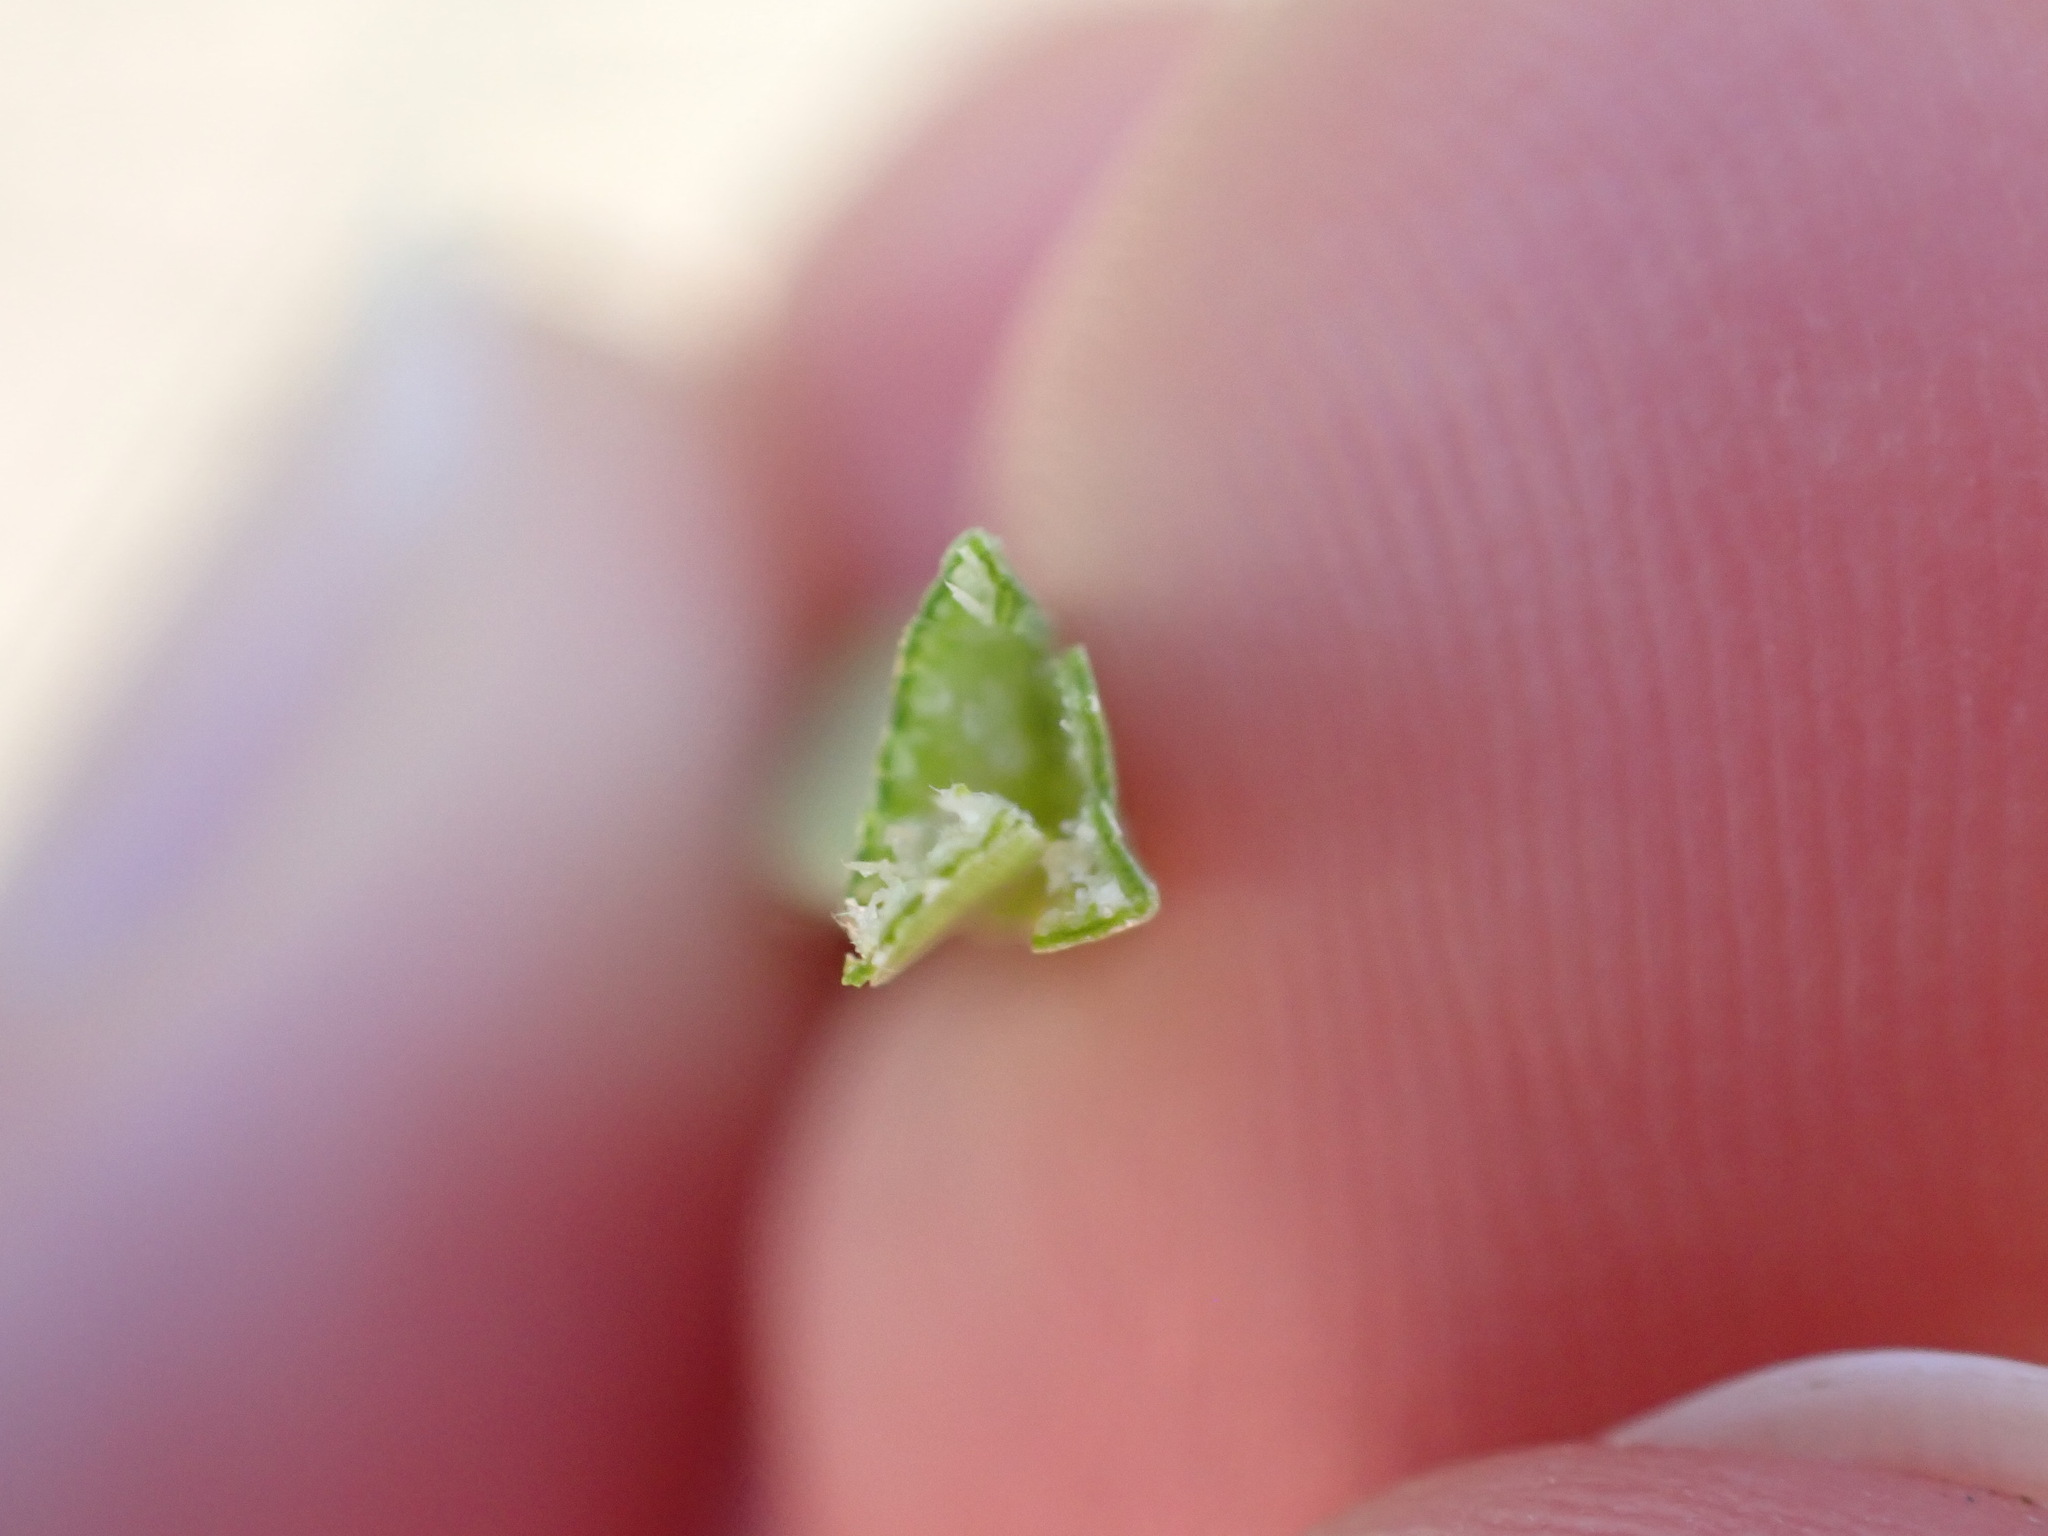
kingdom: Plantae
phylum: Tracheophyta
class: Liliopsida
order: Poales
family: Cyperaceae
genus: Schoenoplectus
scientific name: Schoenoplectus pungens
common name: Sharp club-rush
